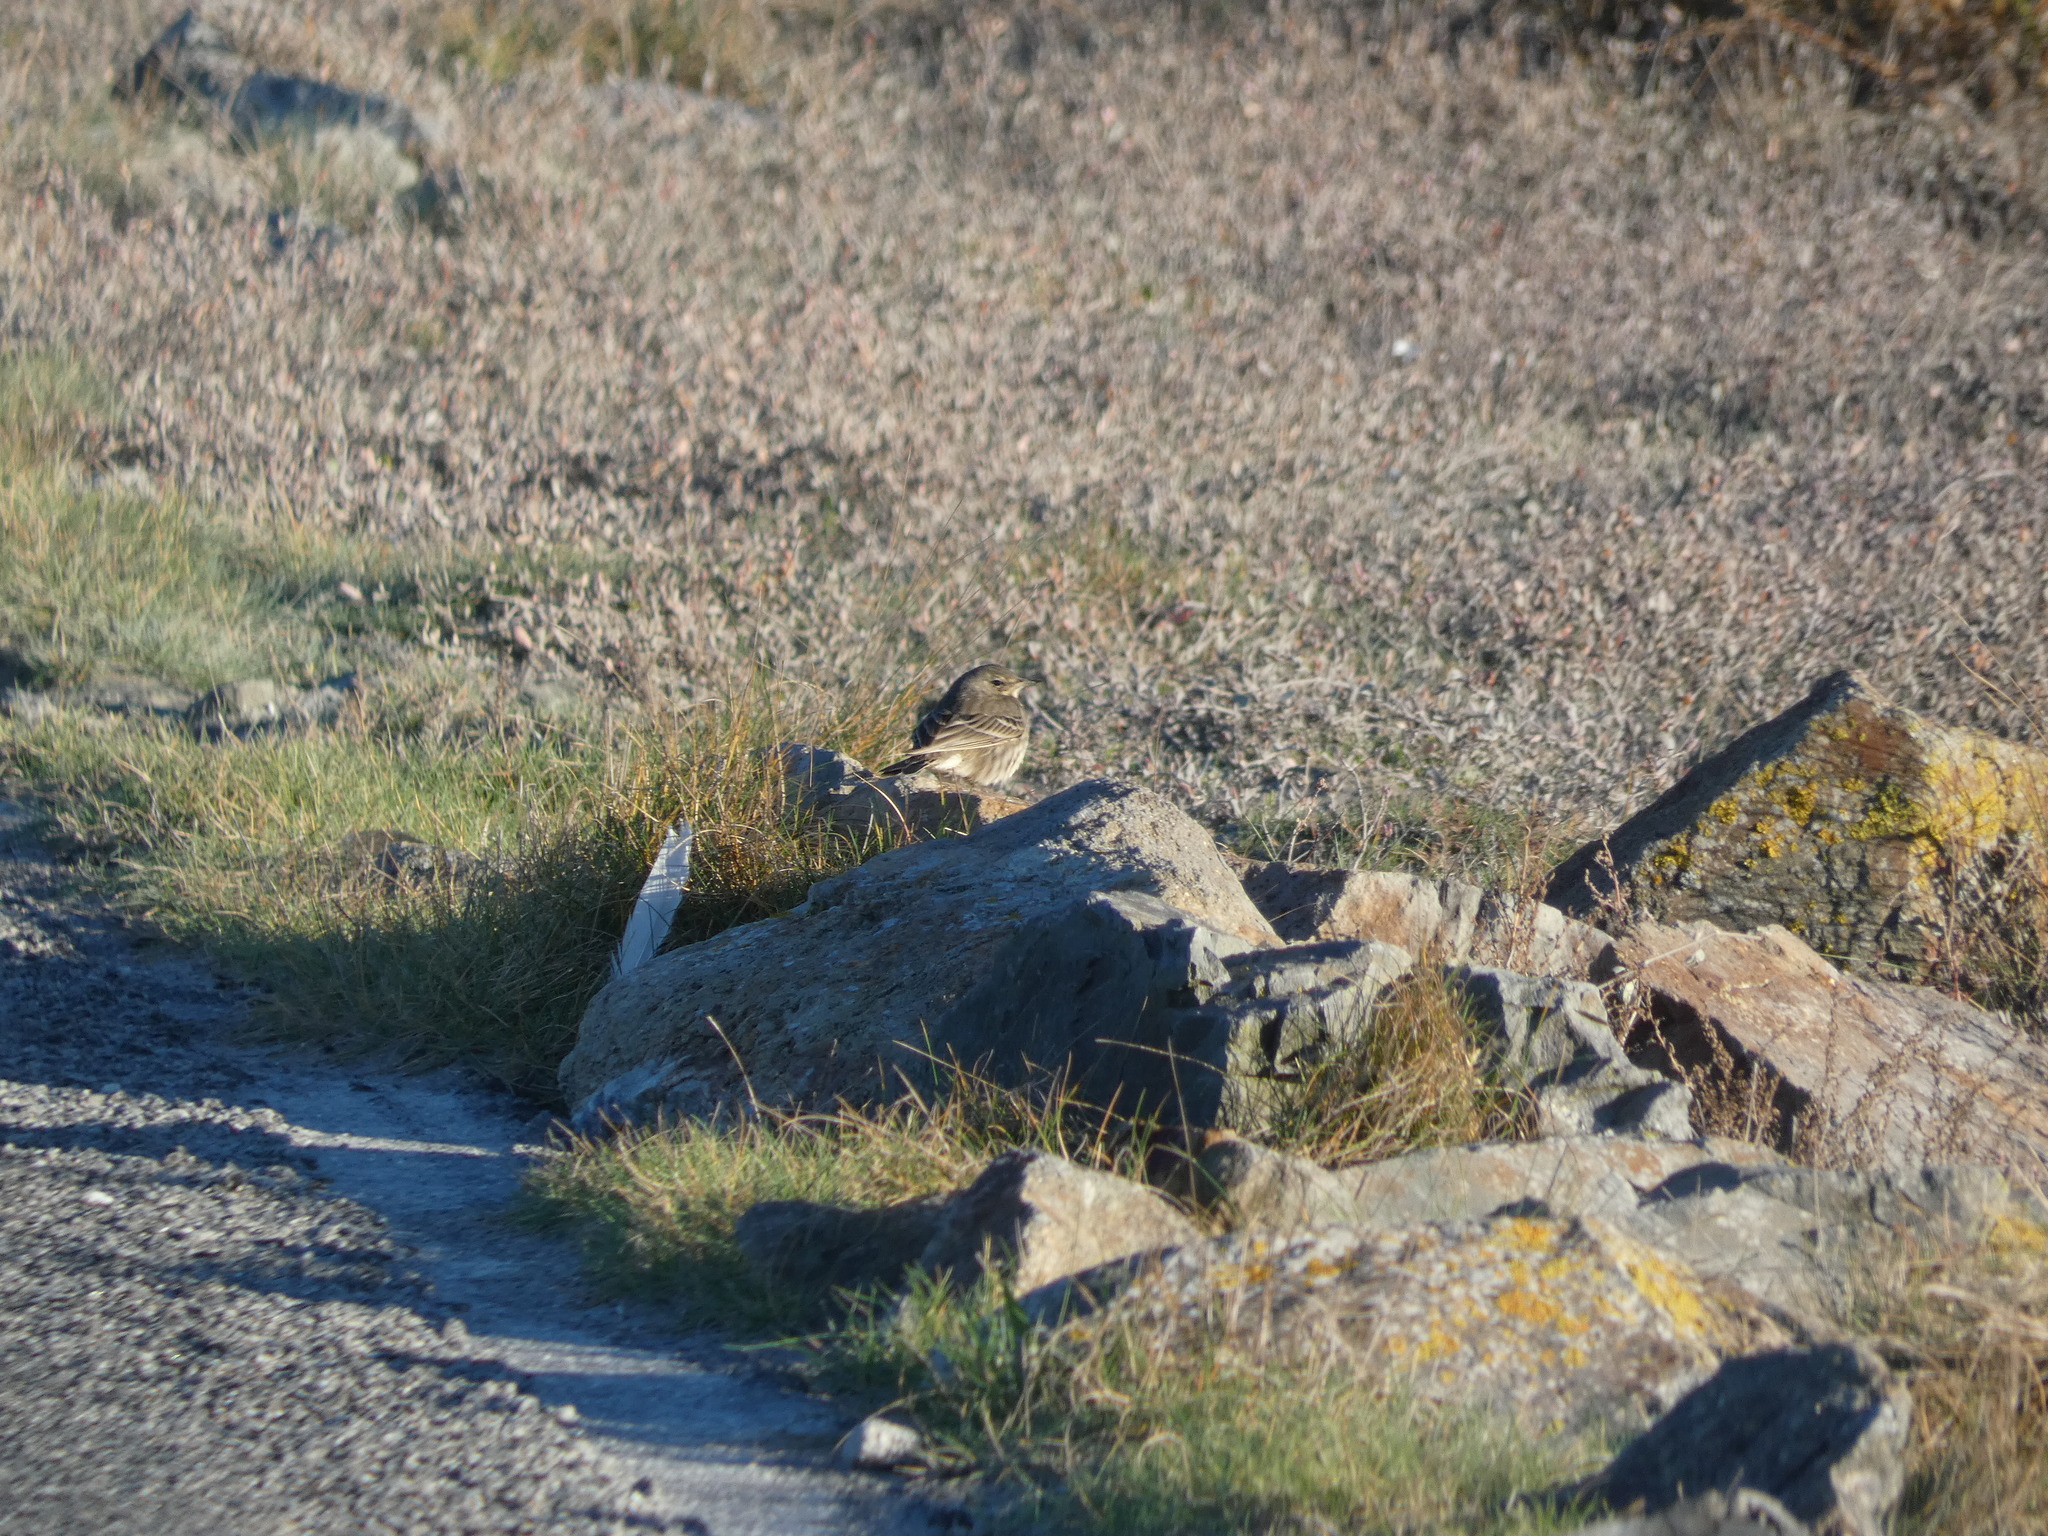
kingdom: Animalia
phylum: Chordata
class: Aves
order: Passeriformes
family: Motacillidae
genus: Anthus
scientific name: Anthus petrosus
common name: Eurasian rock pipit
